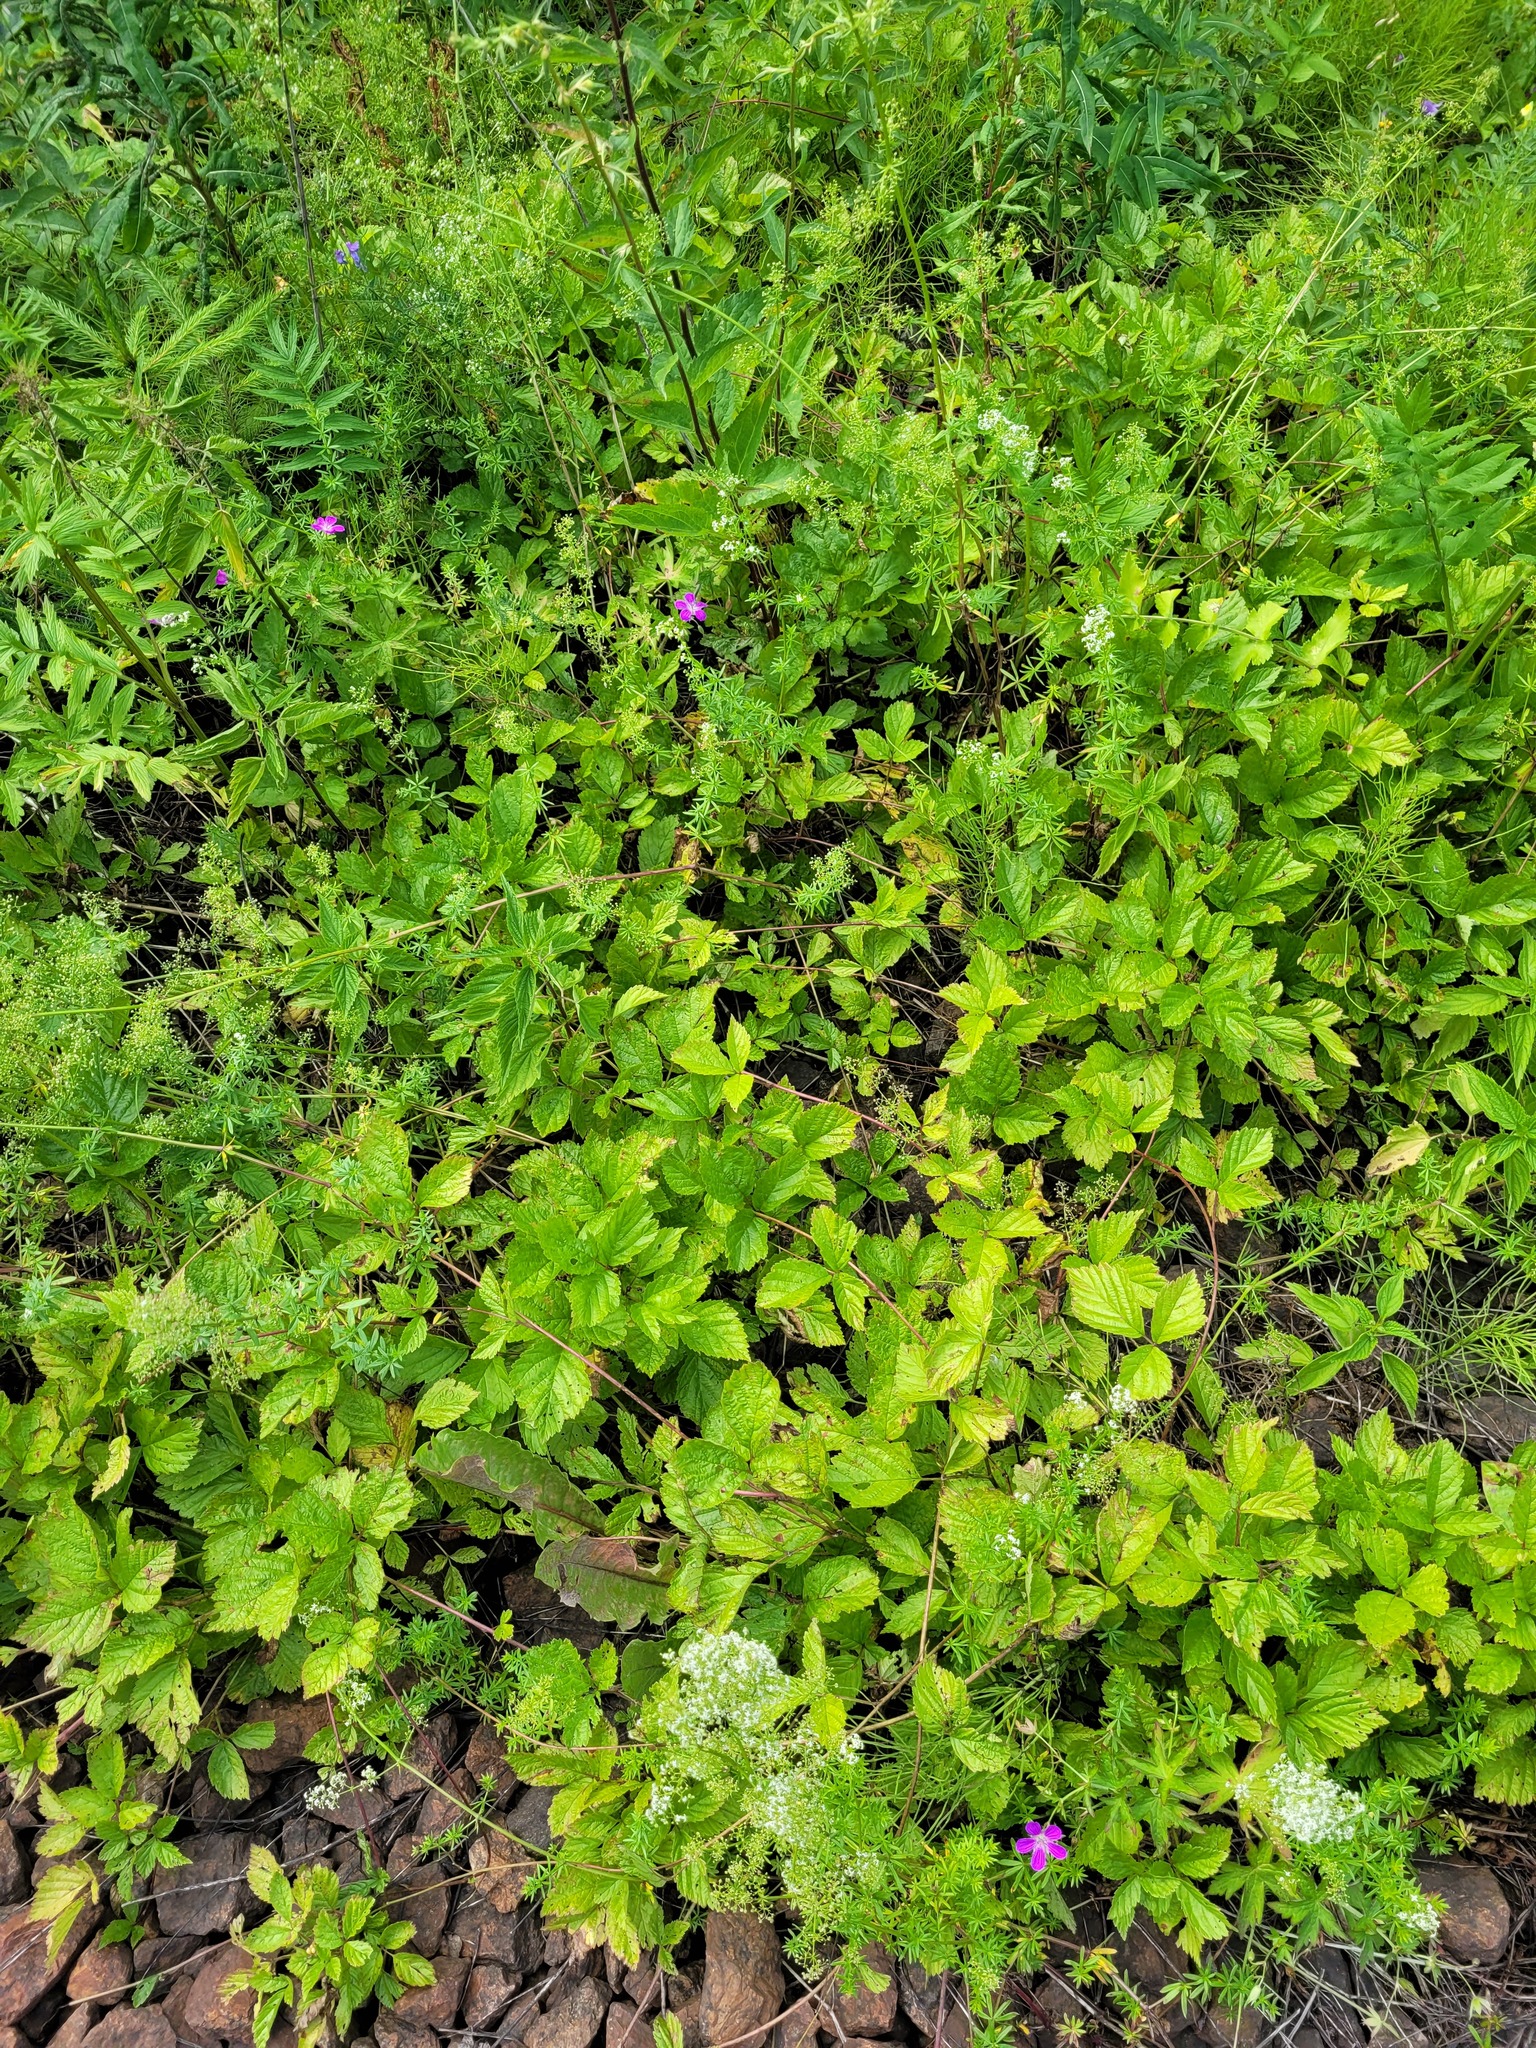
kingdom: Plantae
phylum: Tracheophyta
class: Magnoliopsida
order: Rosales
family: Rosaceae
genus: Rubus
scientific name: Rubus saxatilis
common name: Stone bramble
